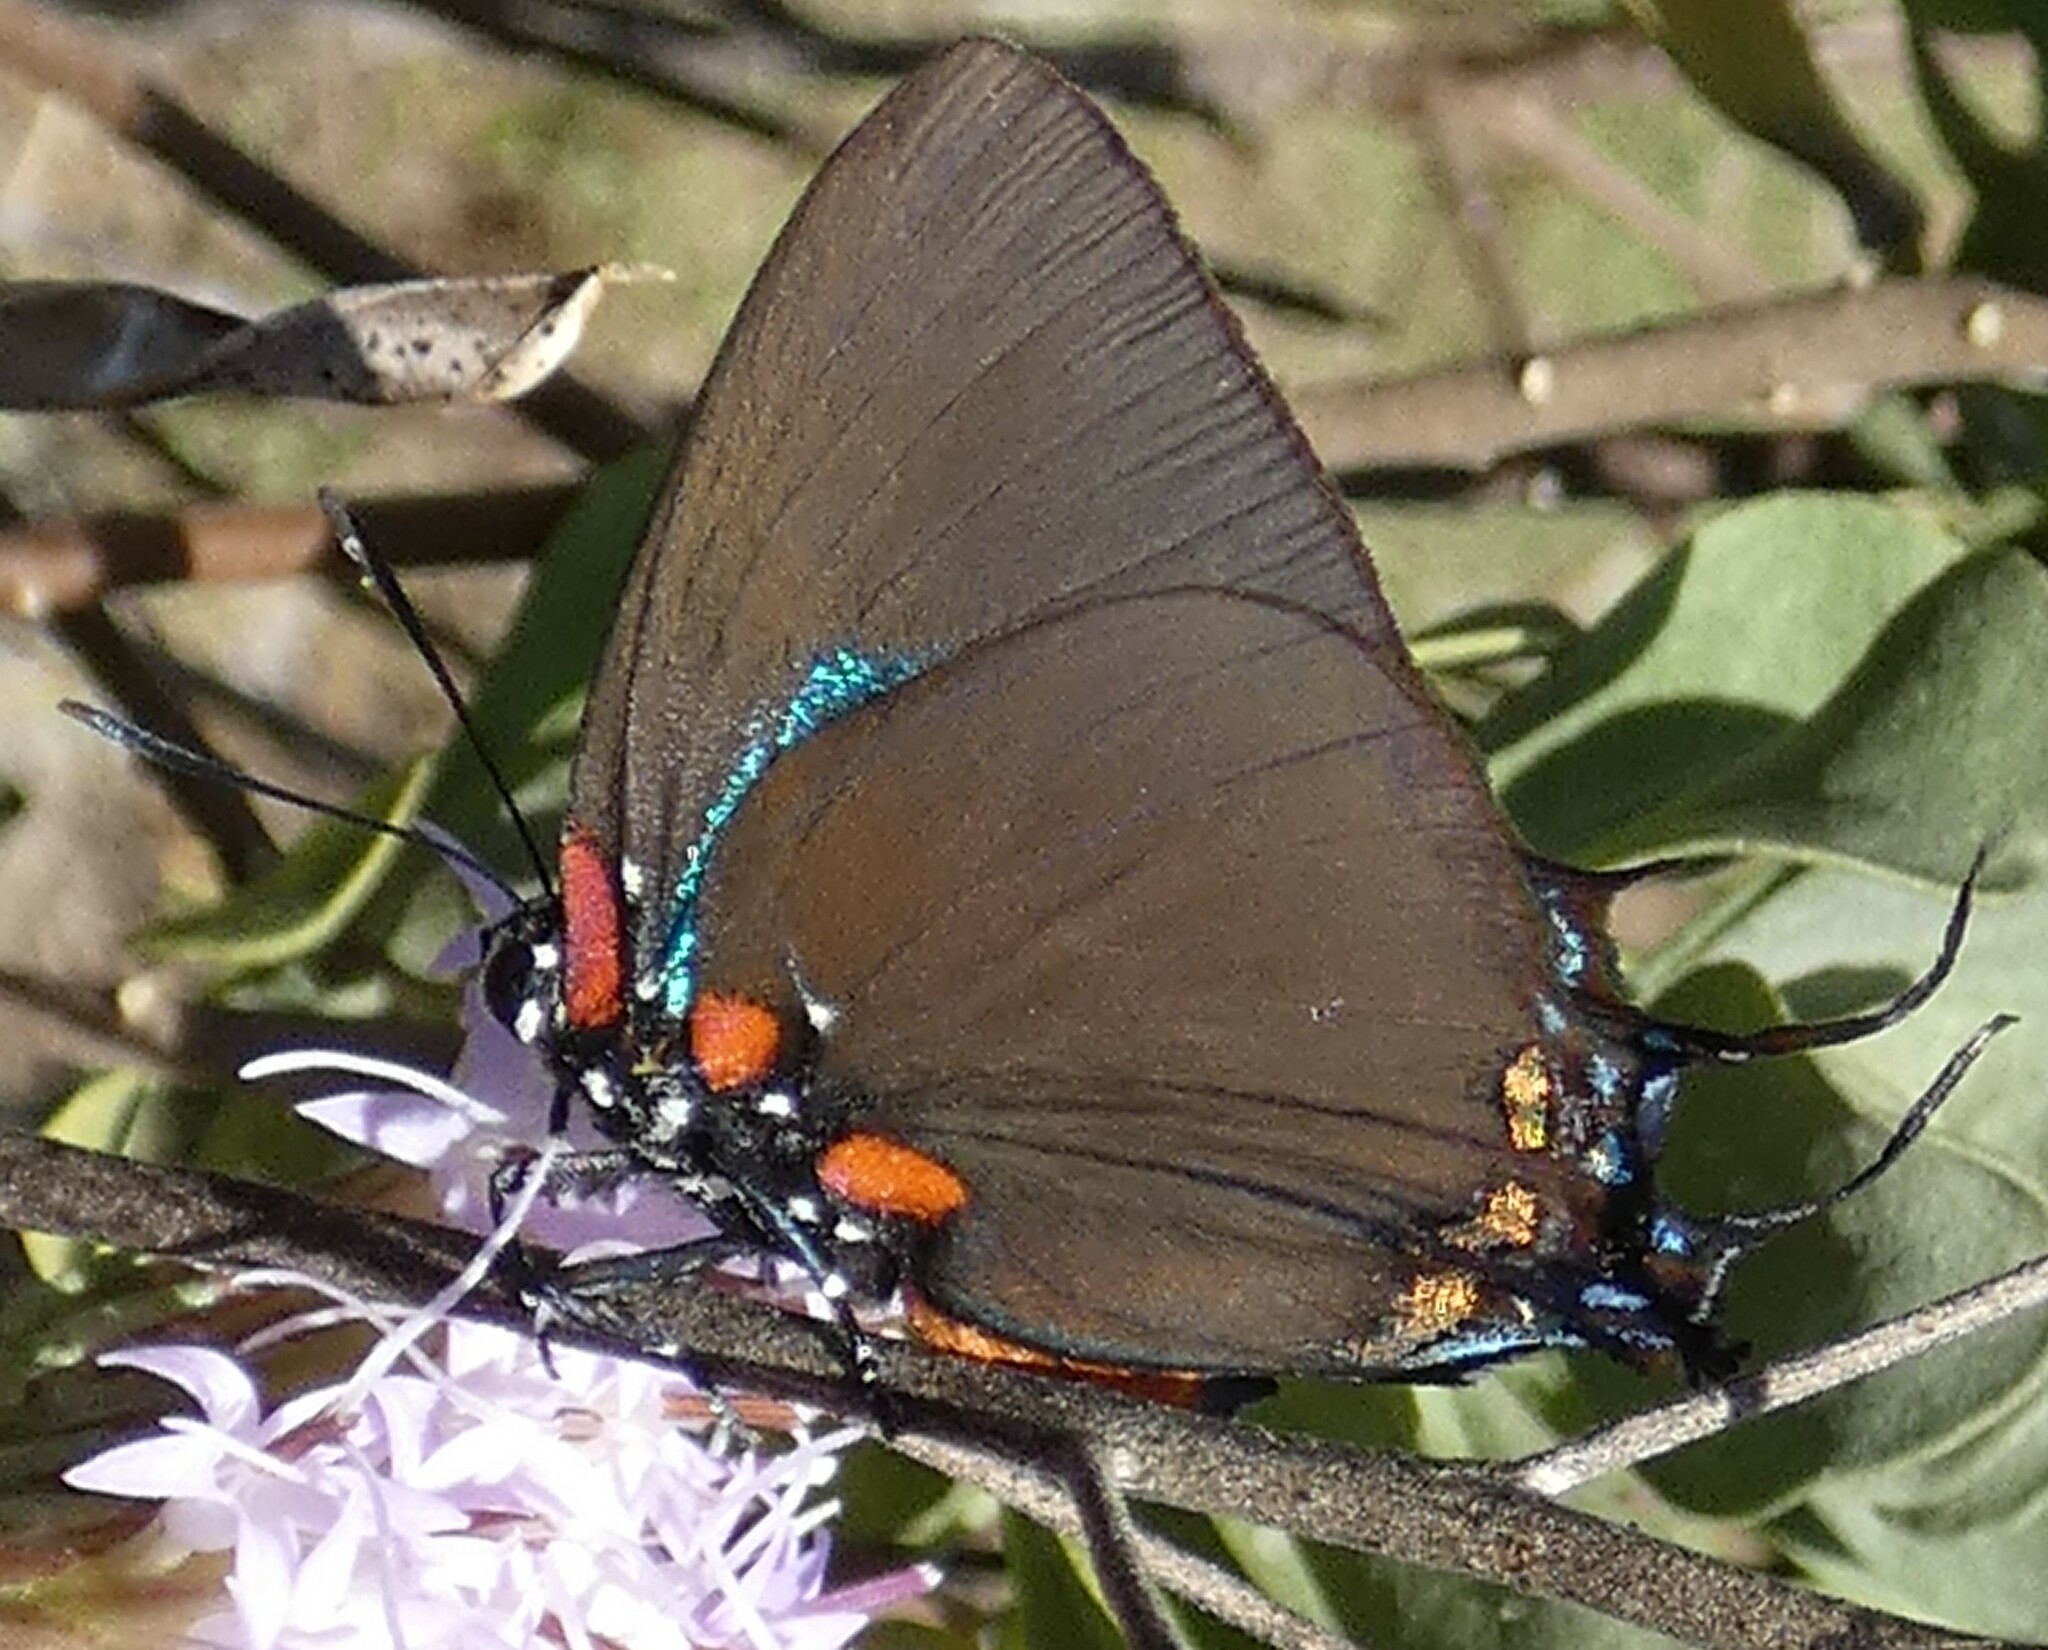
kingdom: Animalia
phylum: Arthropoda
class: Insecta
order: Lepidoptera
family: Lycaenidae
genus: Atlides
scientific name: Atlides halesus
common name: Great purple hairstreak
